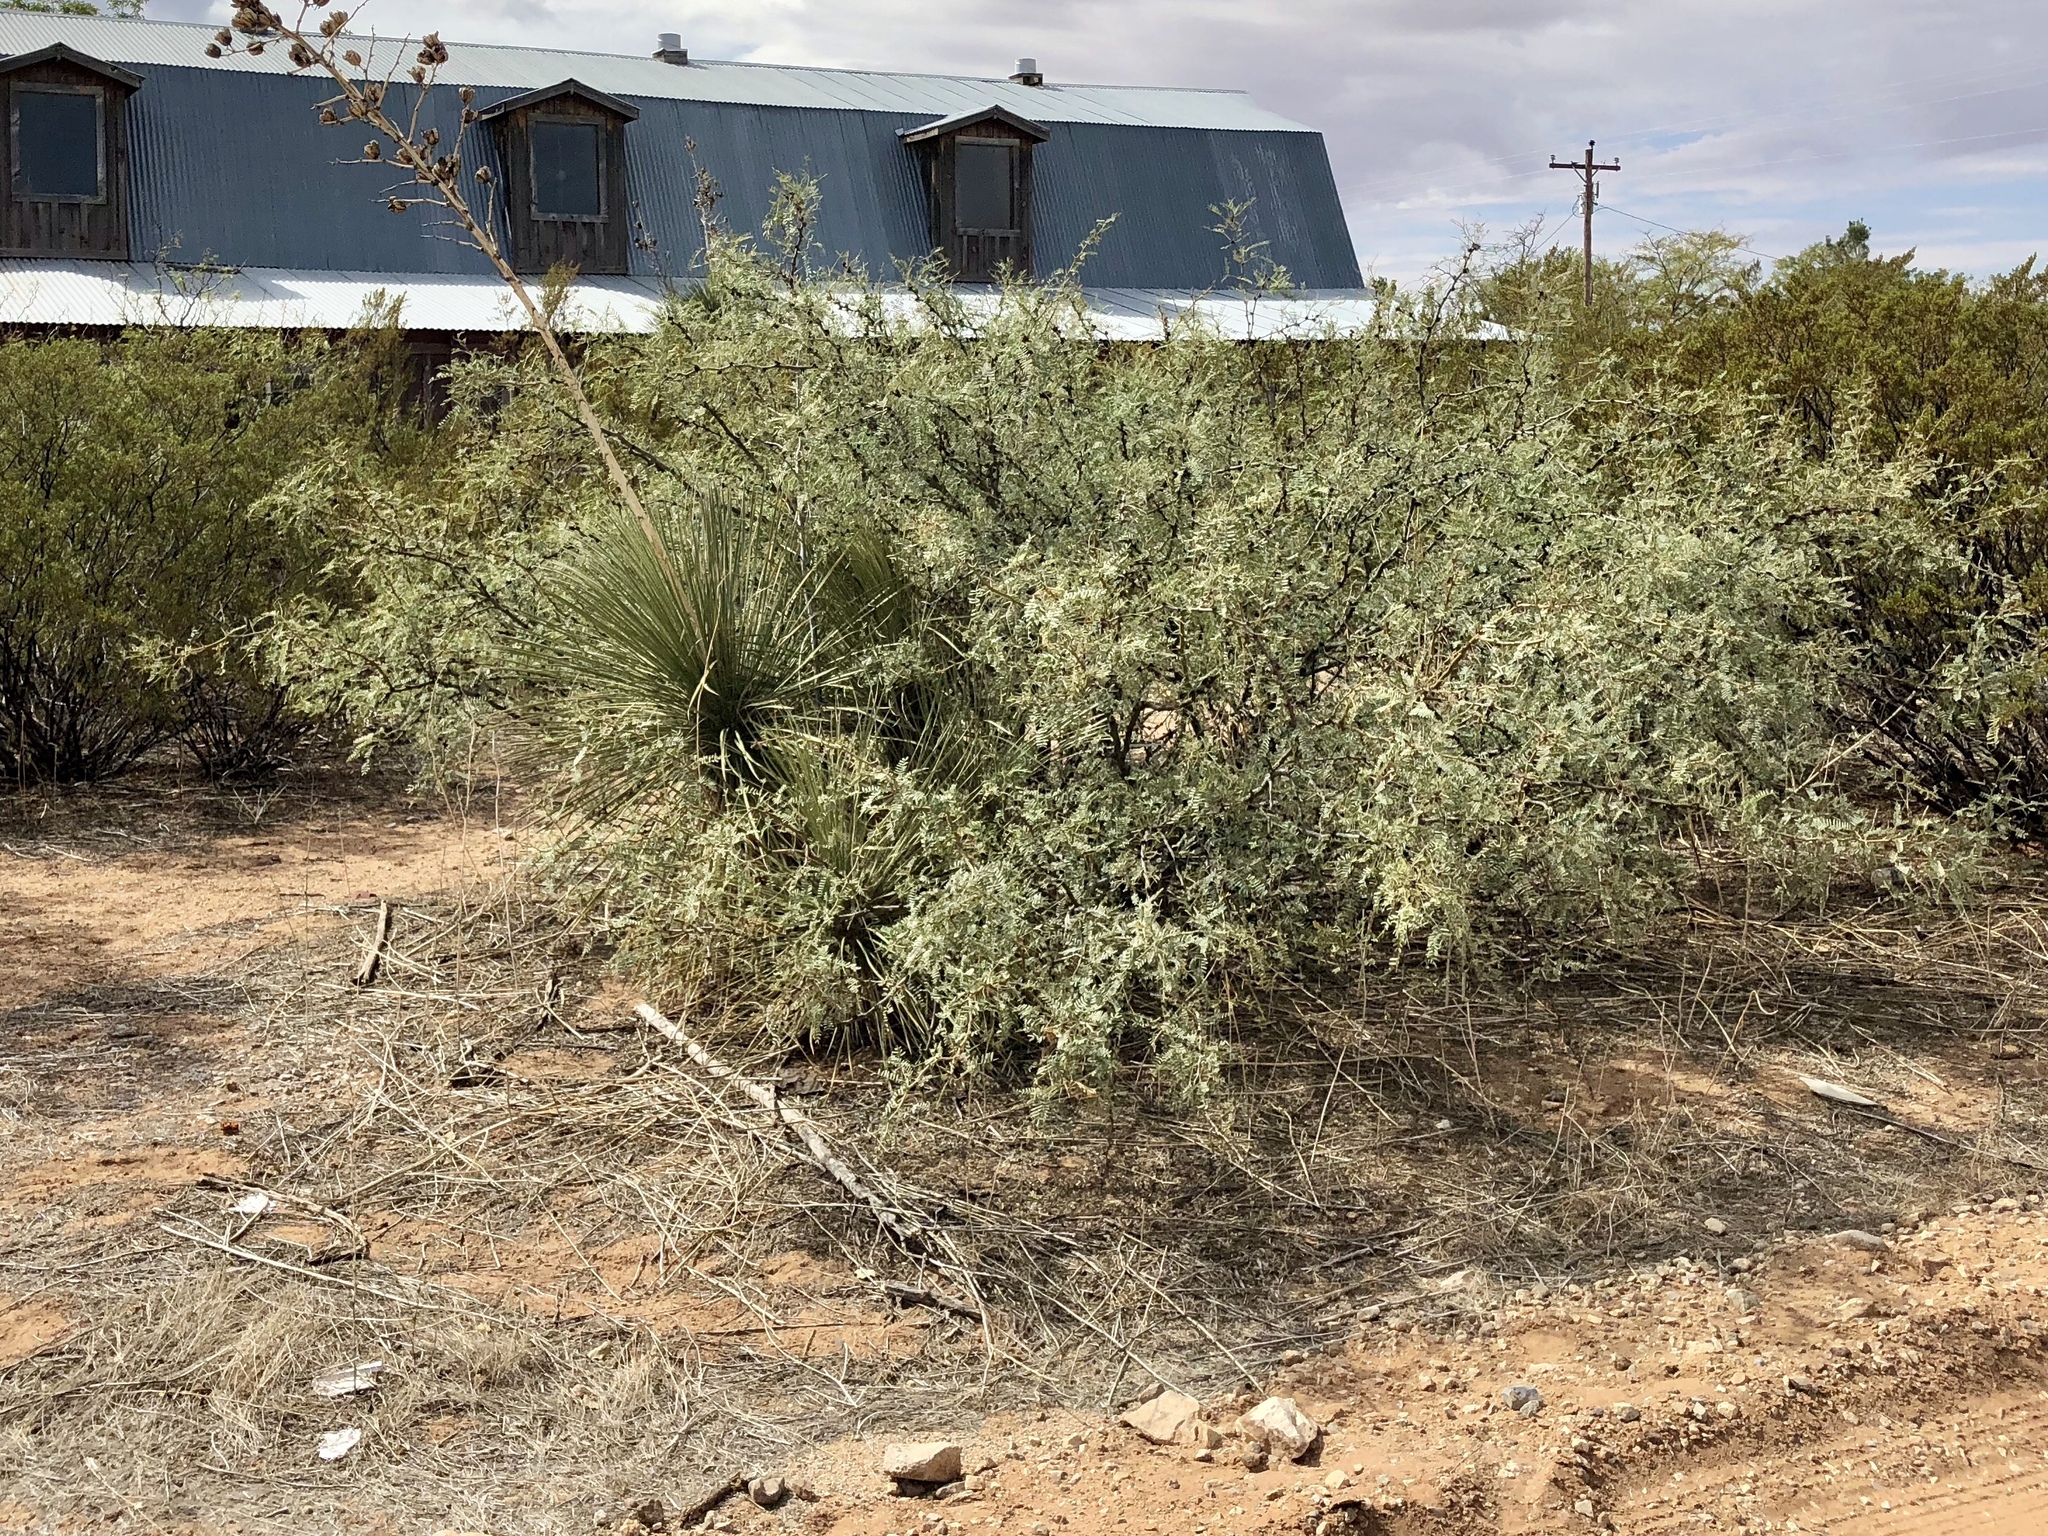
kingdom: Plantae
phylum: Tracheophyta
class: Magnoliopsida
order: Fabales
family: Fabaceae
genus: Prosopis
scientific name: Prosopis glandulosa
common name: Honey mesquite
